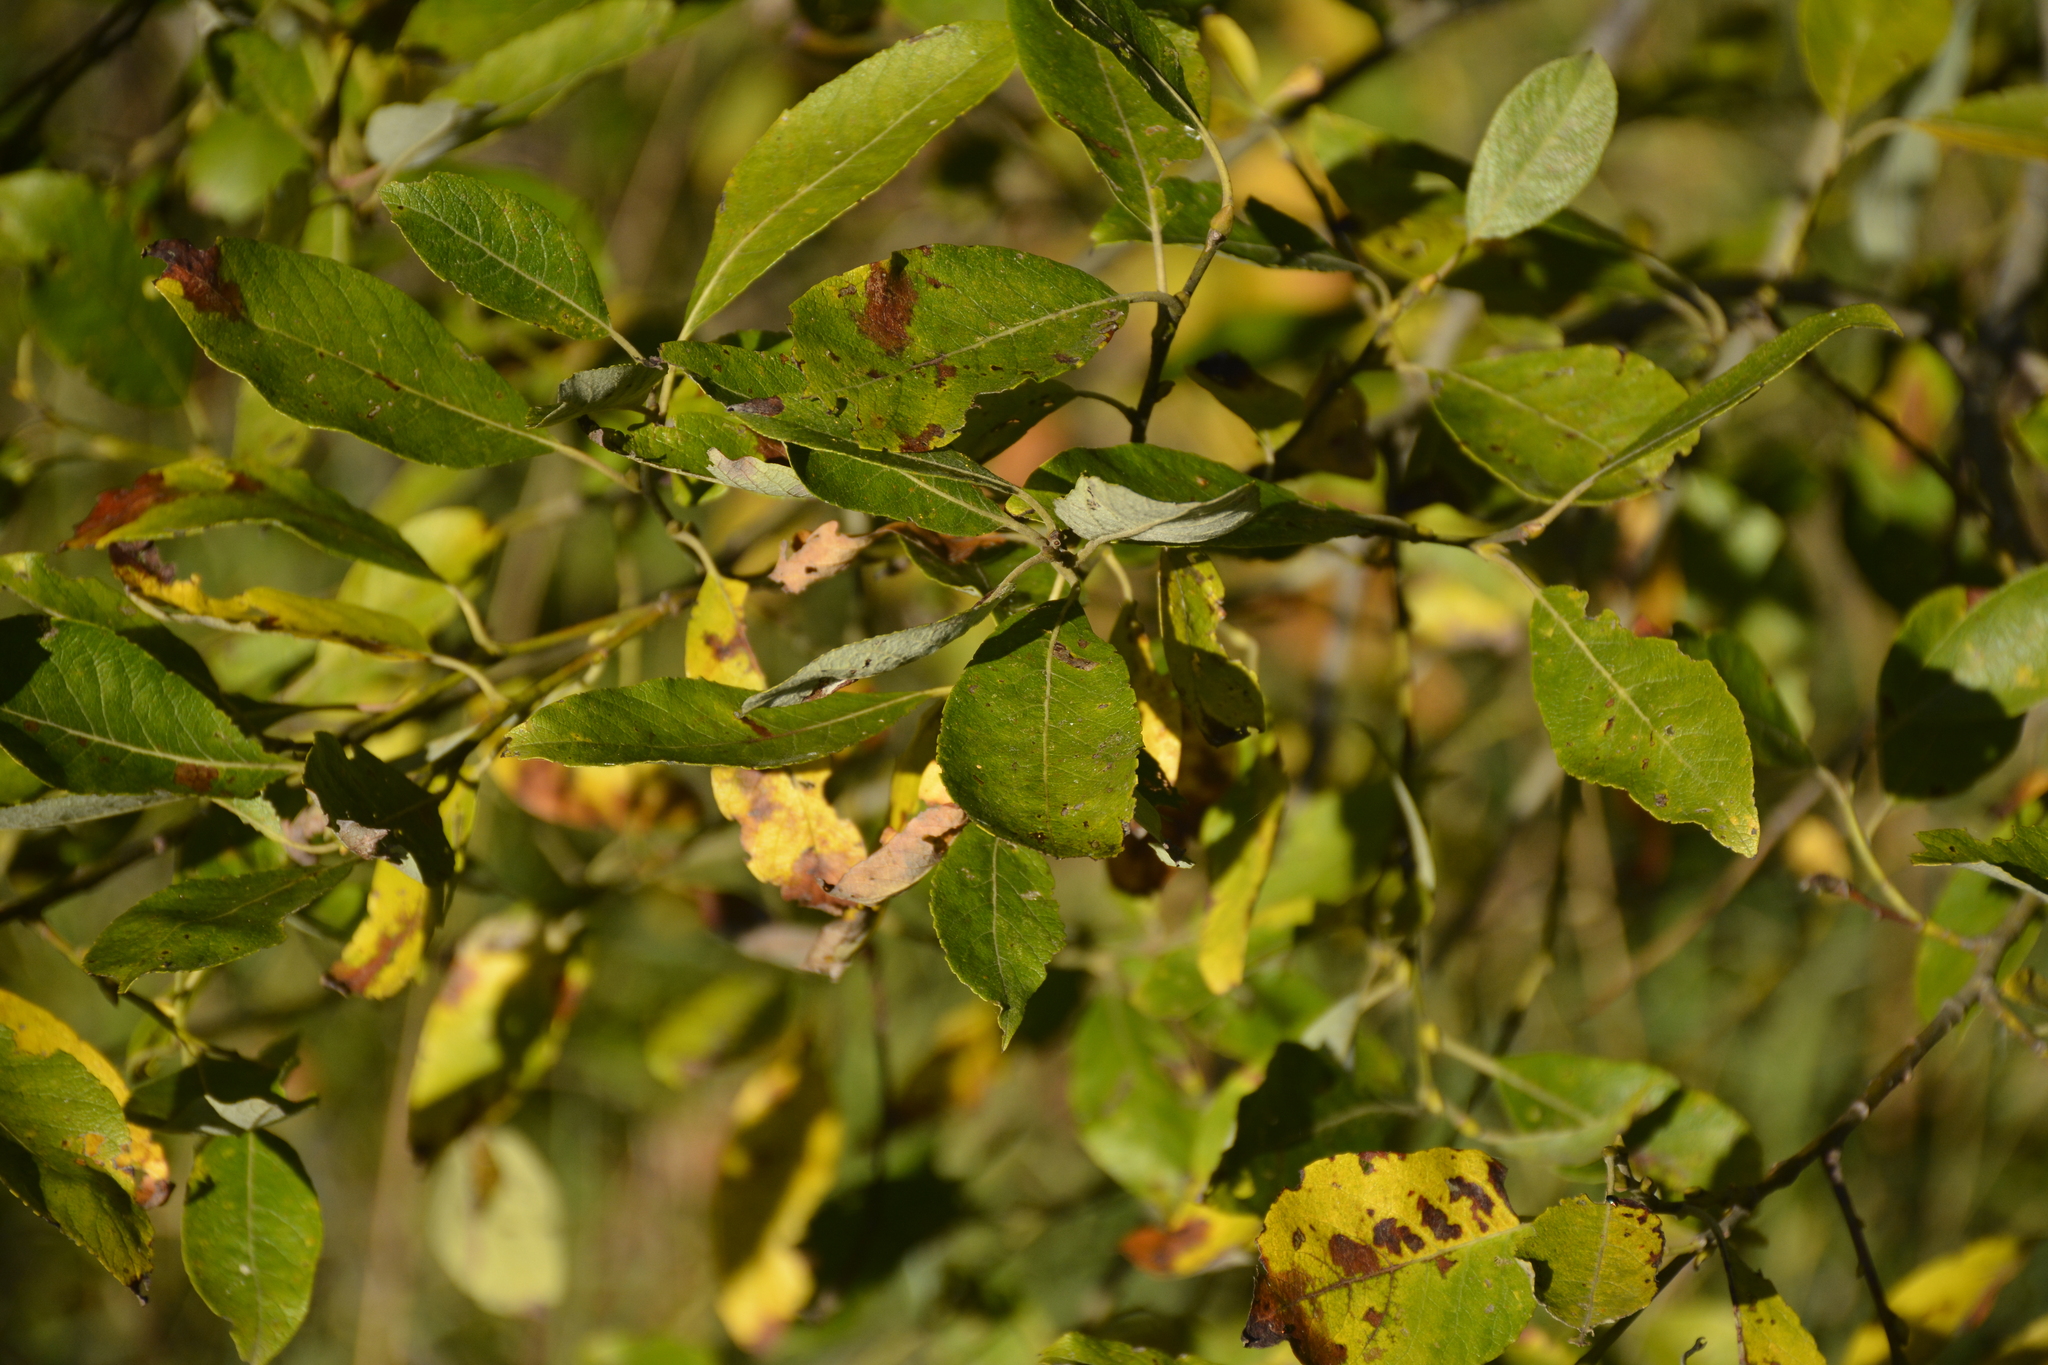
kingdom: Plantae
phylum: Tracheophyta
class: Magnoliopsida
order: Malpighiales
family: Salicaceae
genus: Salix
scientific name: Salix caprea
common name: Goat willow
